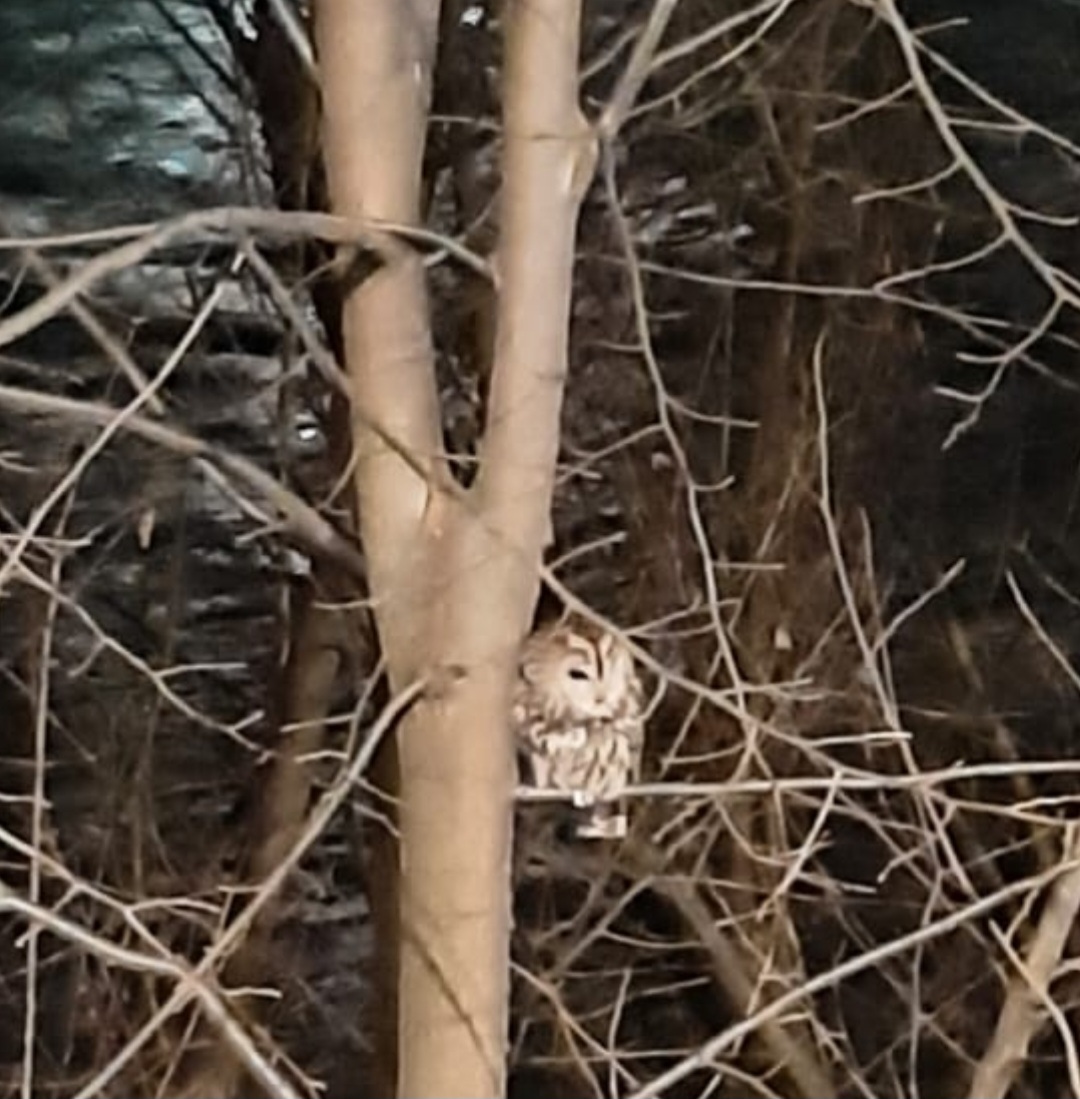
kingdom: Animalia
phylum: Chordata
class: Aves
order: Strigiformes
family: Strigidae
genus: Strix
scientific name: Strix aluco
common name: Tawny owl
